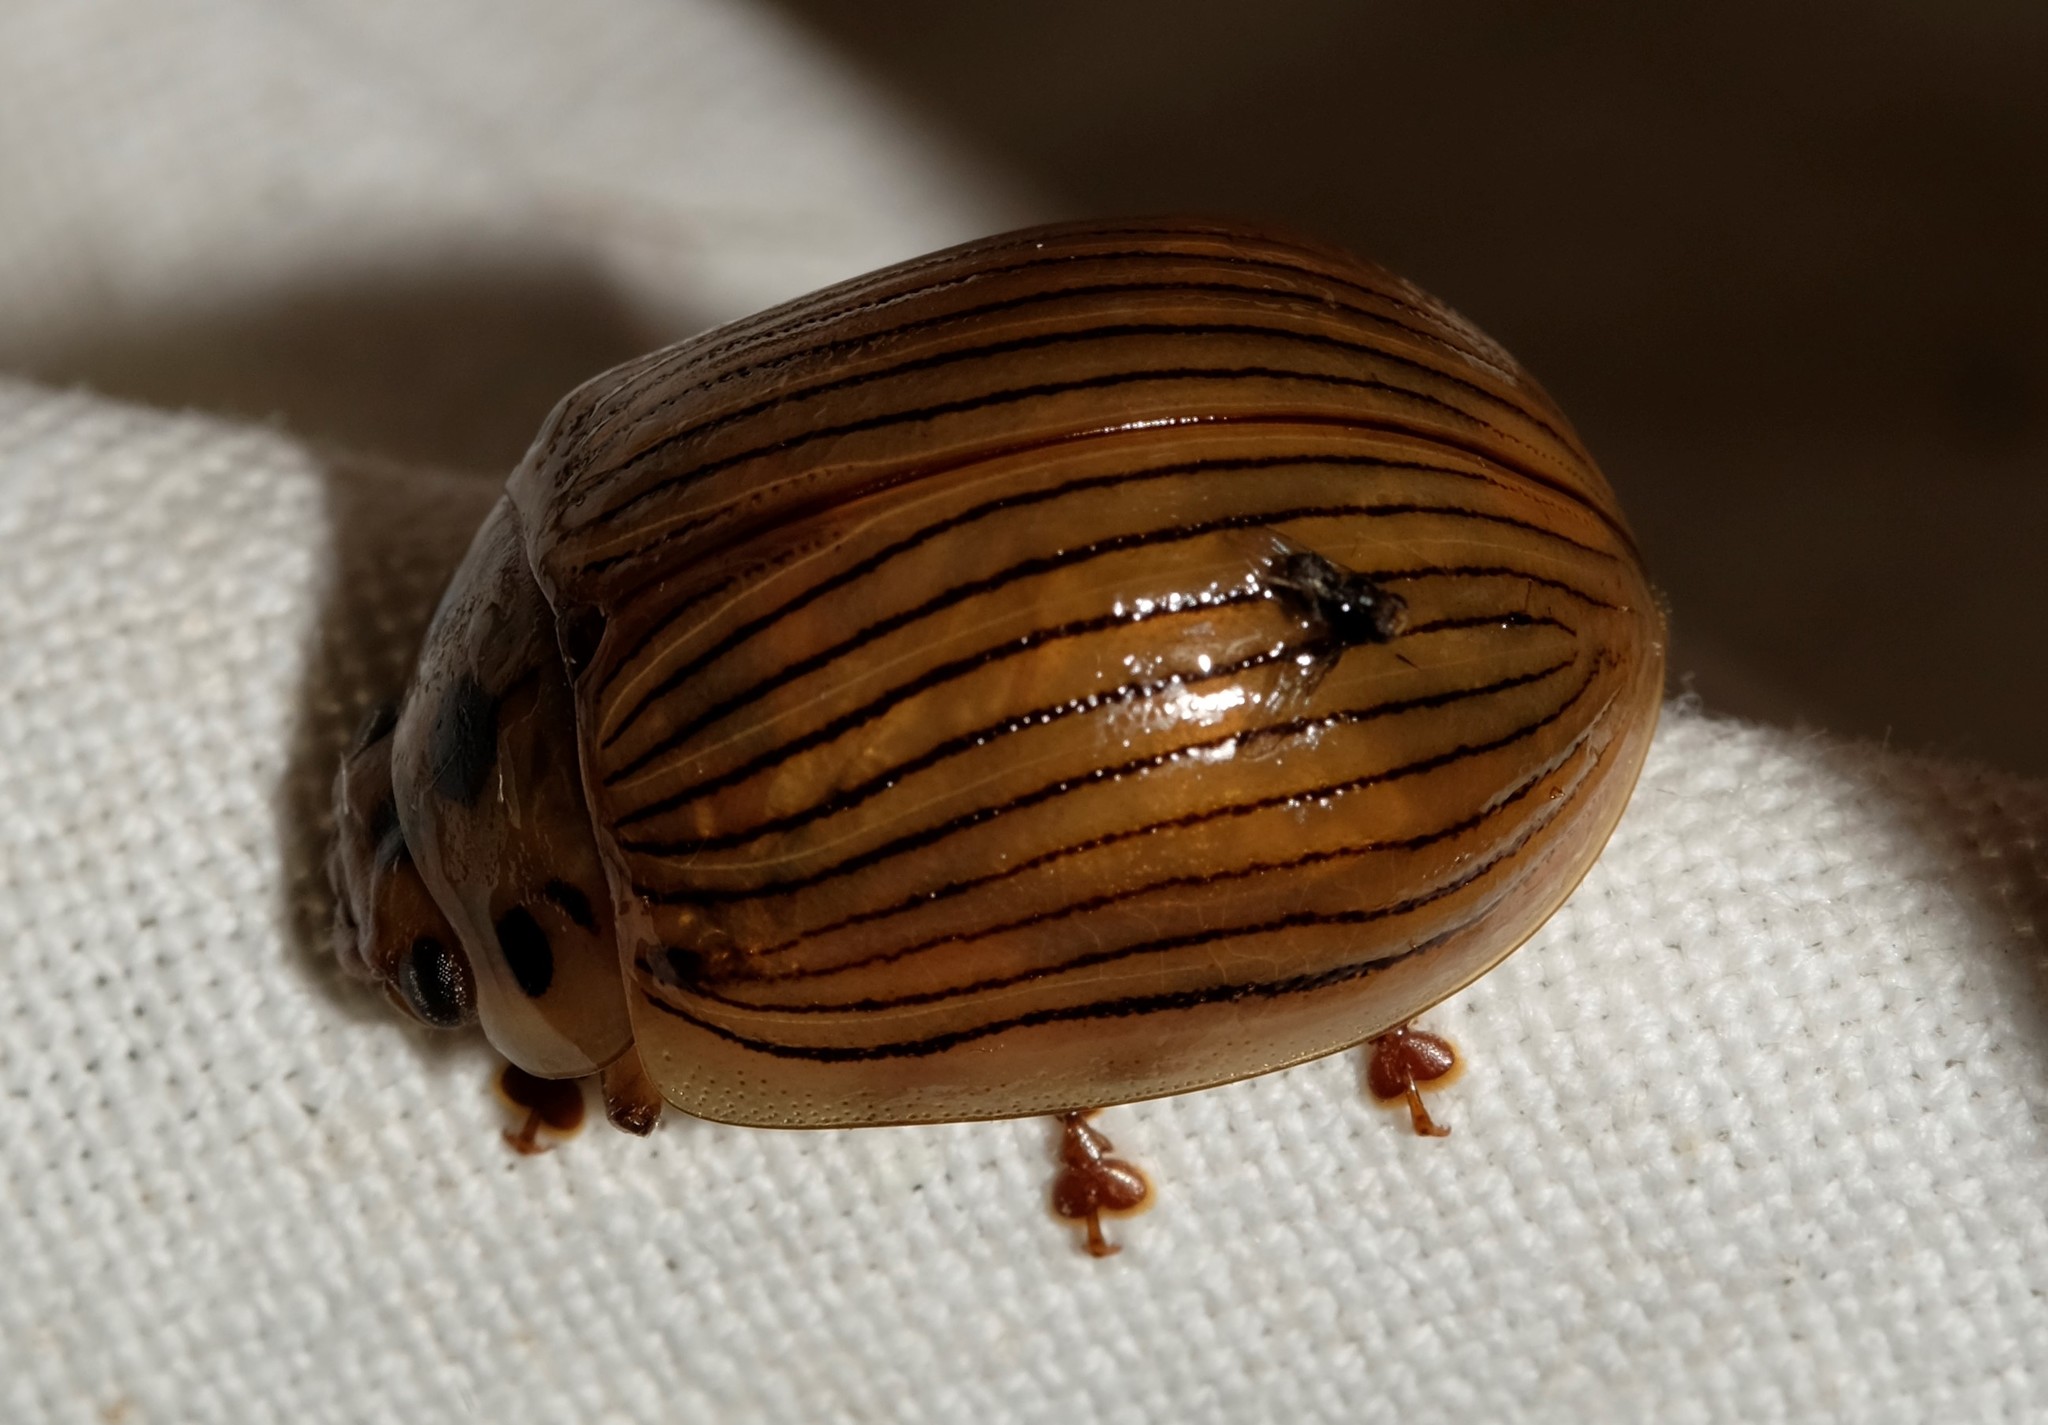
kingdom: Animalia
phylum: Arthropoda
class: Insecta
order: Coleoptera
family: Chrysomelidae
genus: Paropsisterna
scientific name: Paropsisterna
